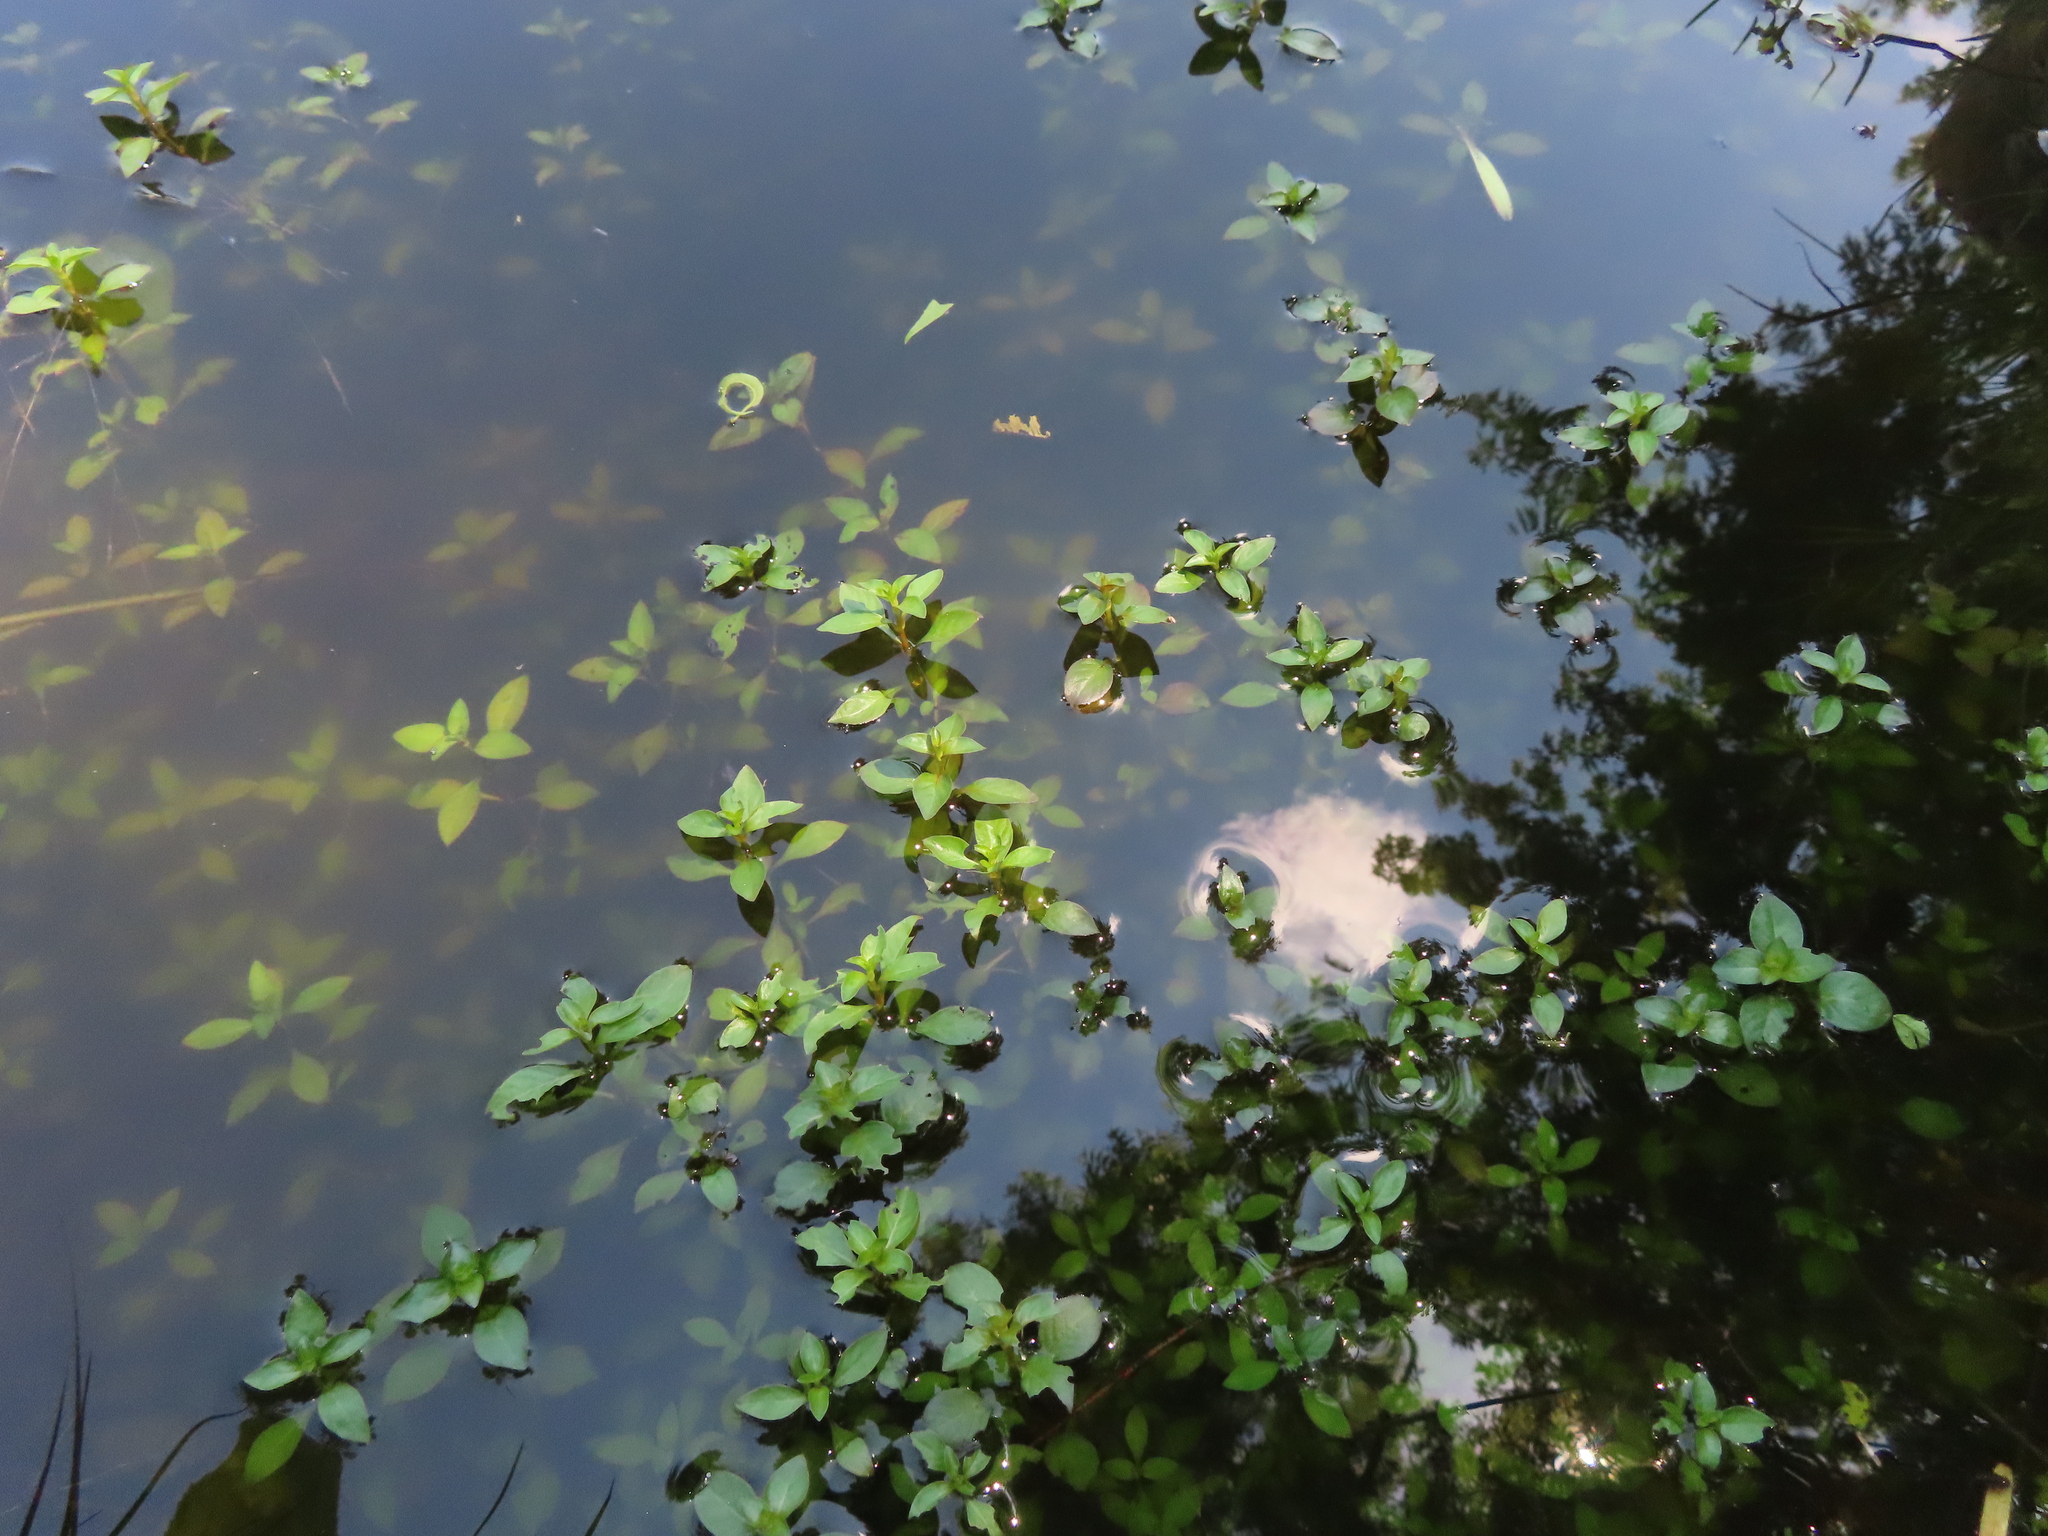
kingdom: Plantae
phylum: Tracheophyta
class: Magnoliopsida
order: Myrtales
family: Onagraceae
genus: Ludwigia
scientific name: Ludwigia palustris
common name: Hampshire-purslane
